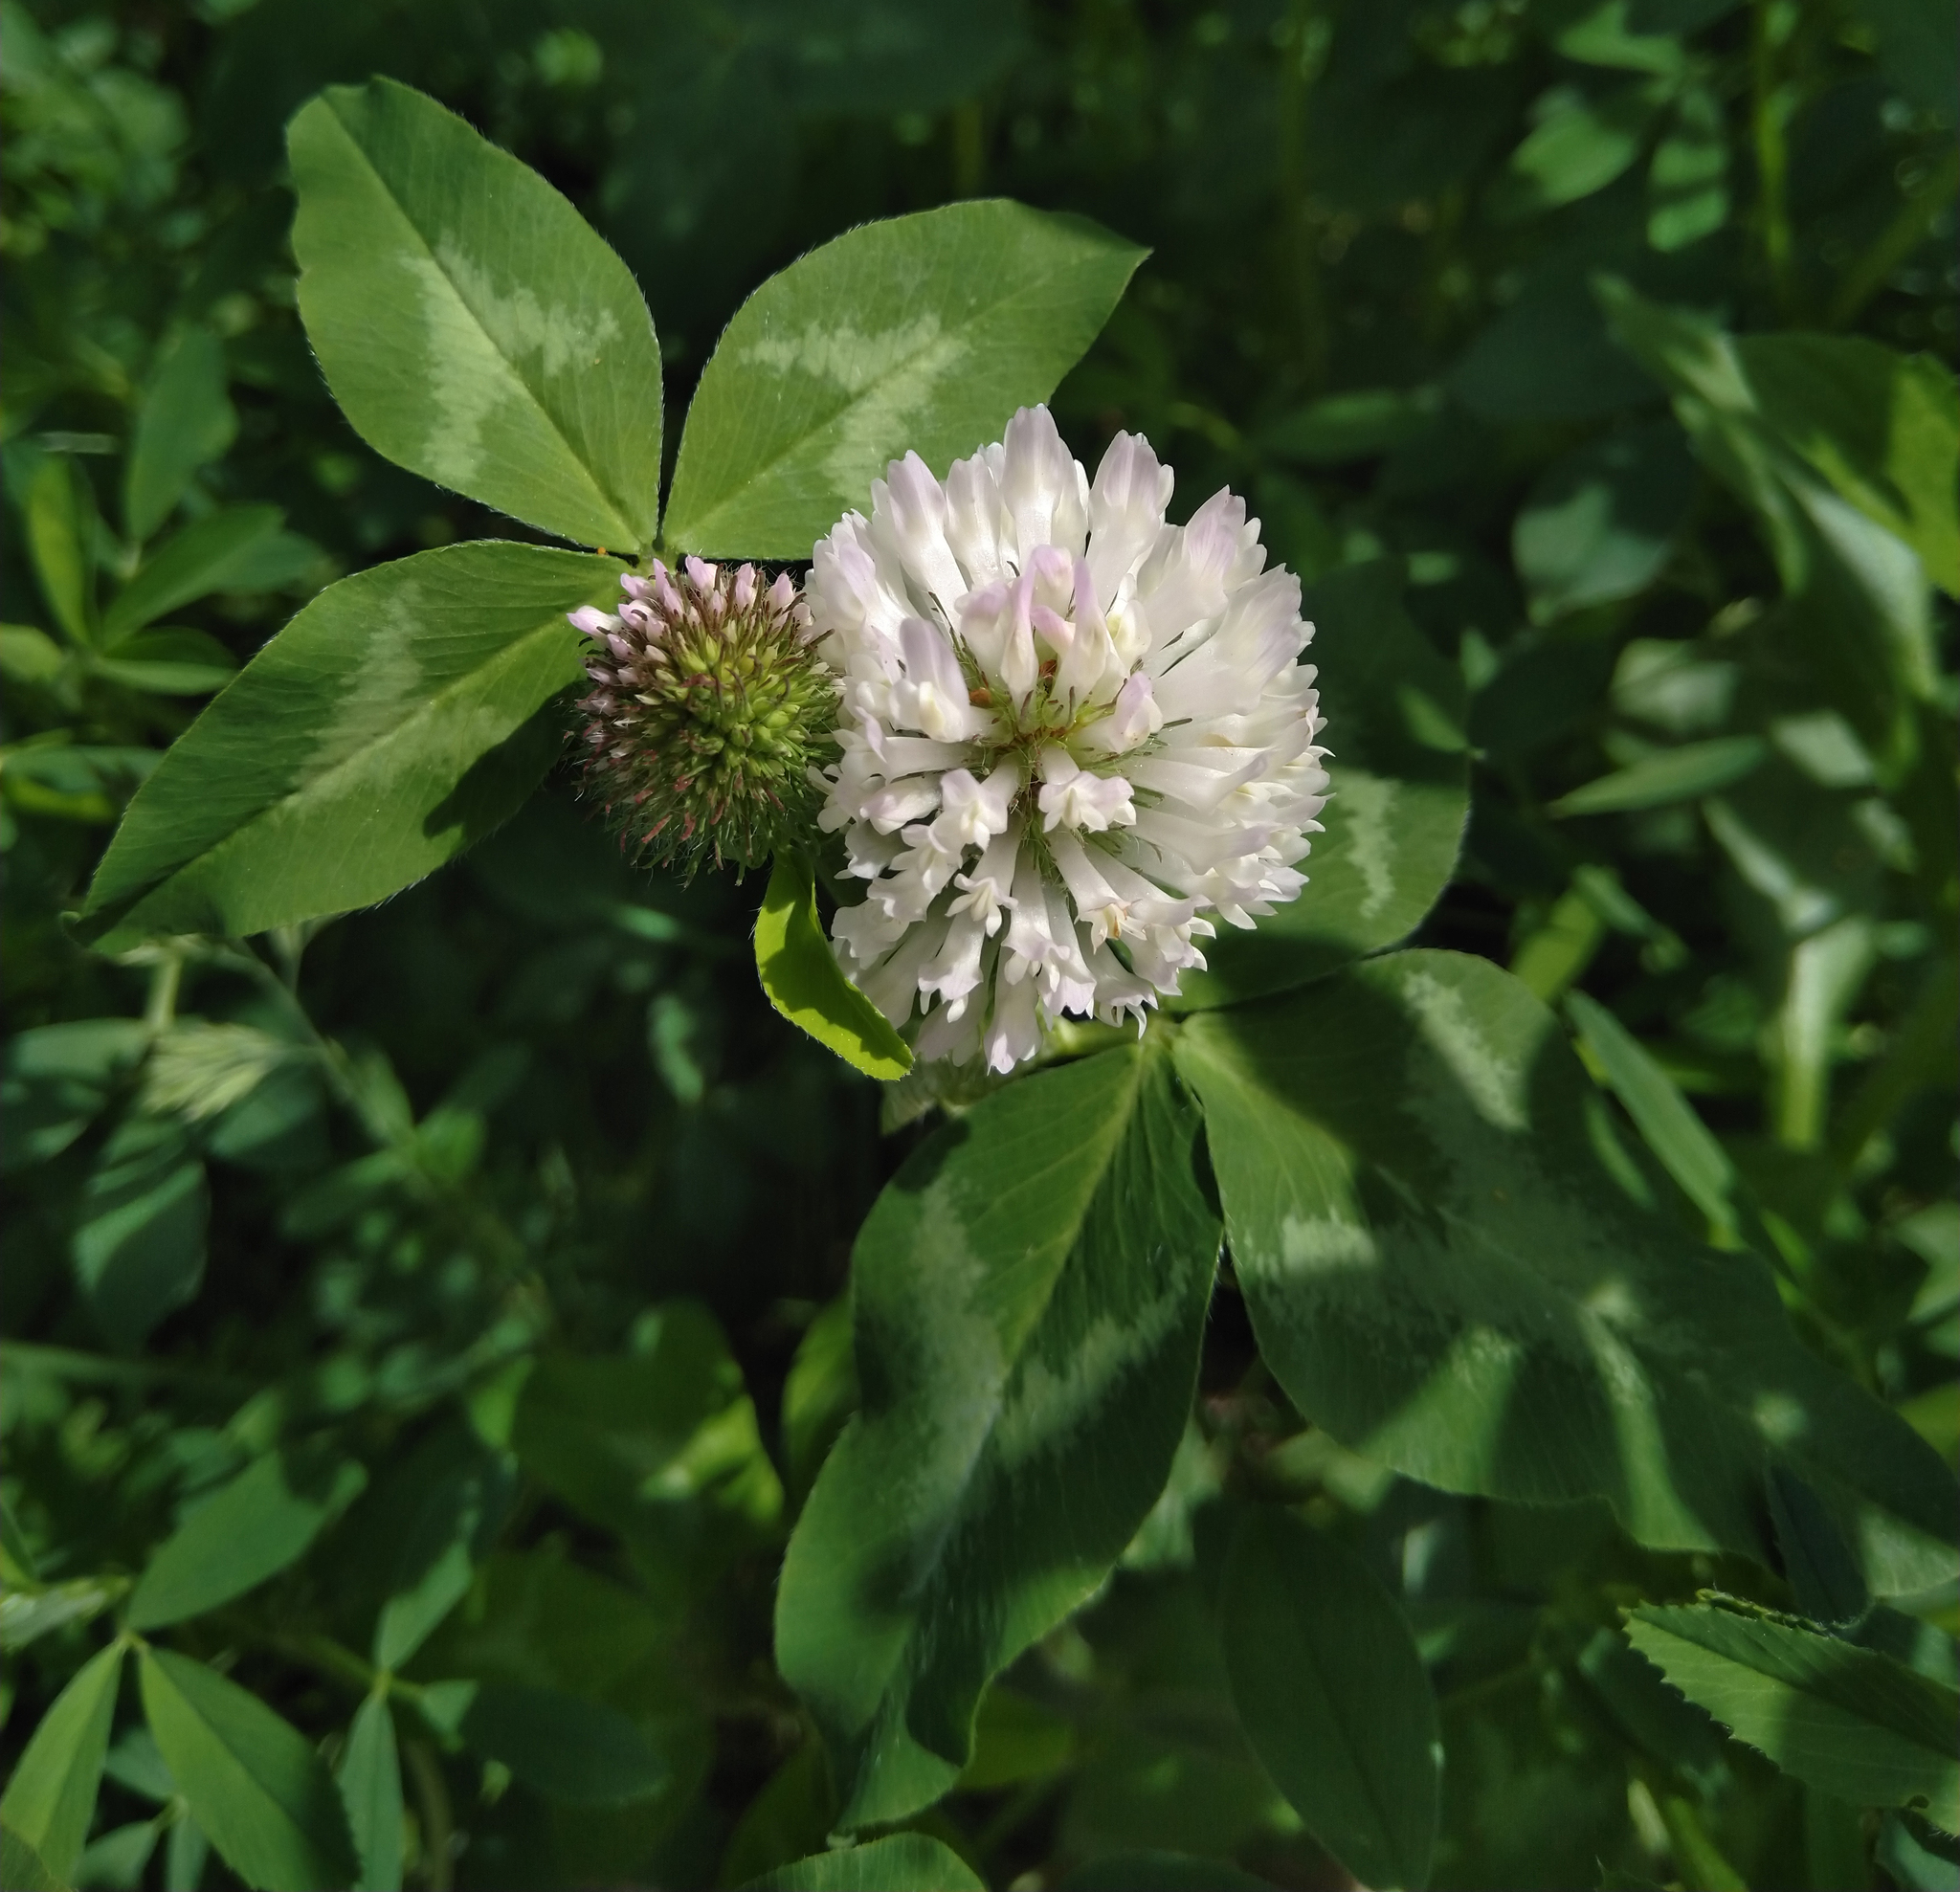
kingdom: Plantae
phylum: Tracheophyta
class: Magnoliopsida
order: Fabales
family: Fabaceae
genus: Trifolium
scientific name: Trifolium pratense
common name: Red clover
